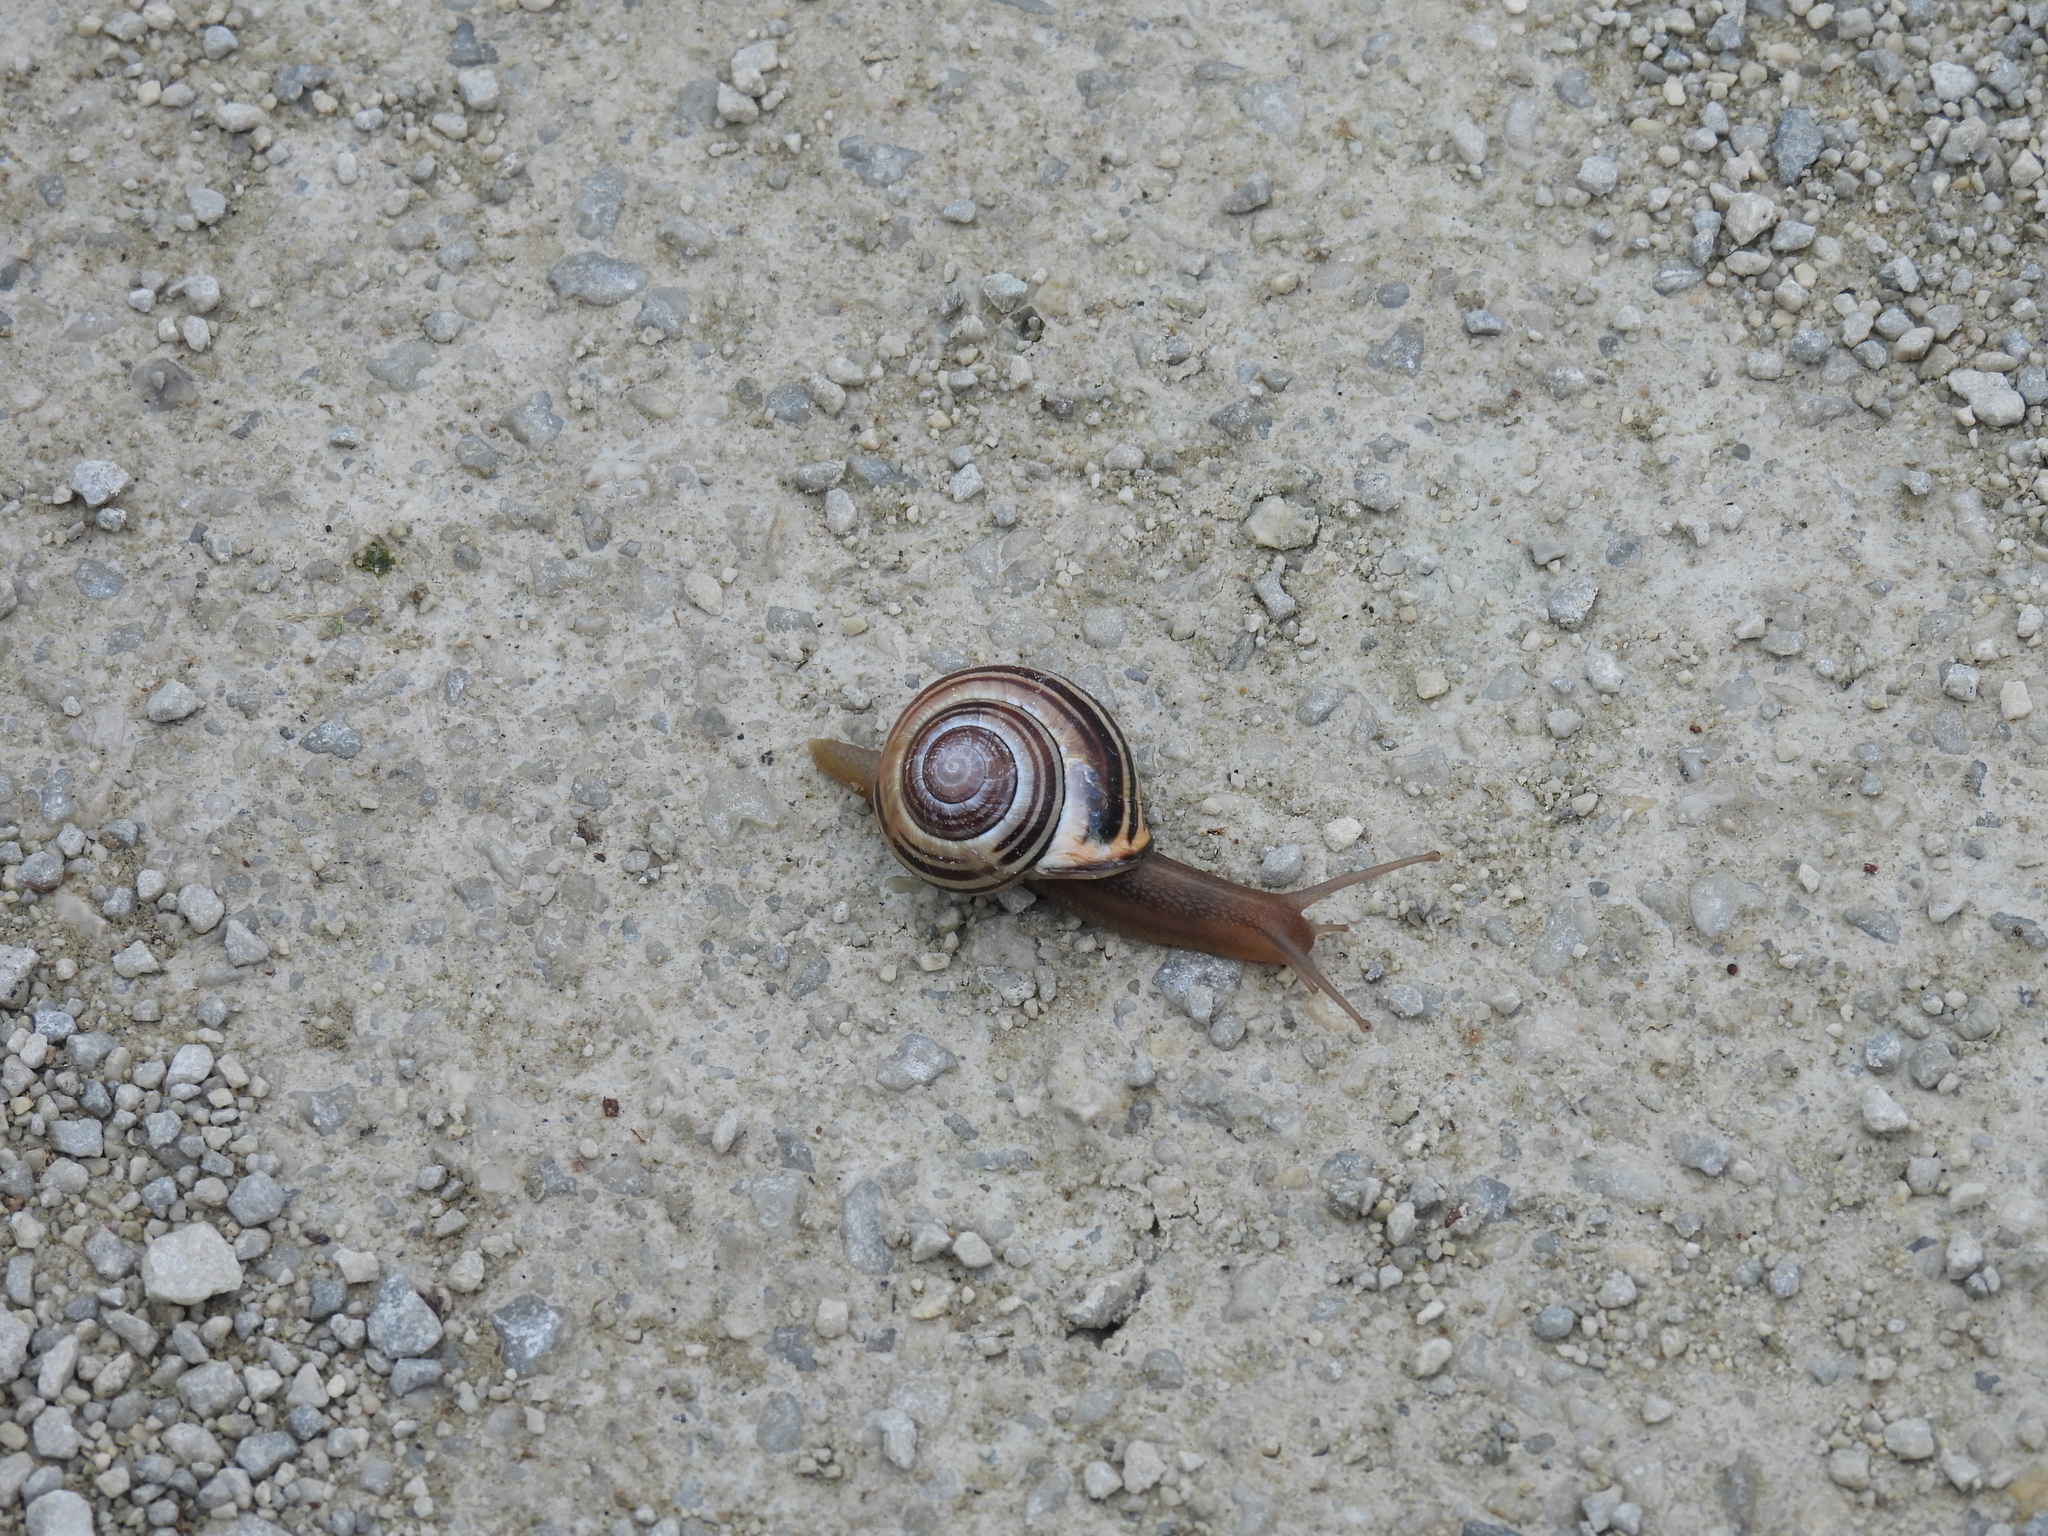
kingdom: Animalia
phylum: Mollusca
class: Gastropoda
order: Stylommatophora
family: Helicidae
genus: Cepaea
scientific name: Cepaea nemoralis
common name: Grovesnail
